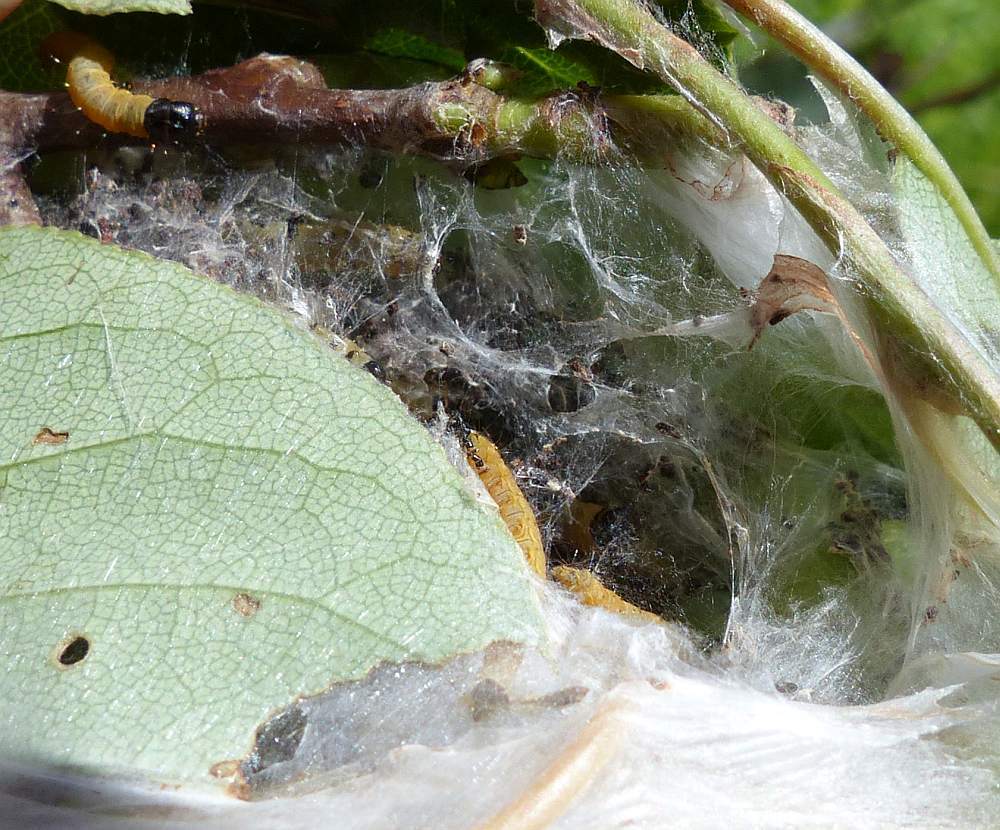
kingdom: Animalia
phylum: Arthropoda
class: Insecta
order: Lepidoptera
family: Tortricidae
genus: Archips
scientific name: Archips cerasivorana
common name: Uglynest caterpillar
